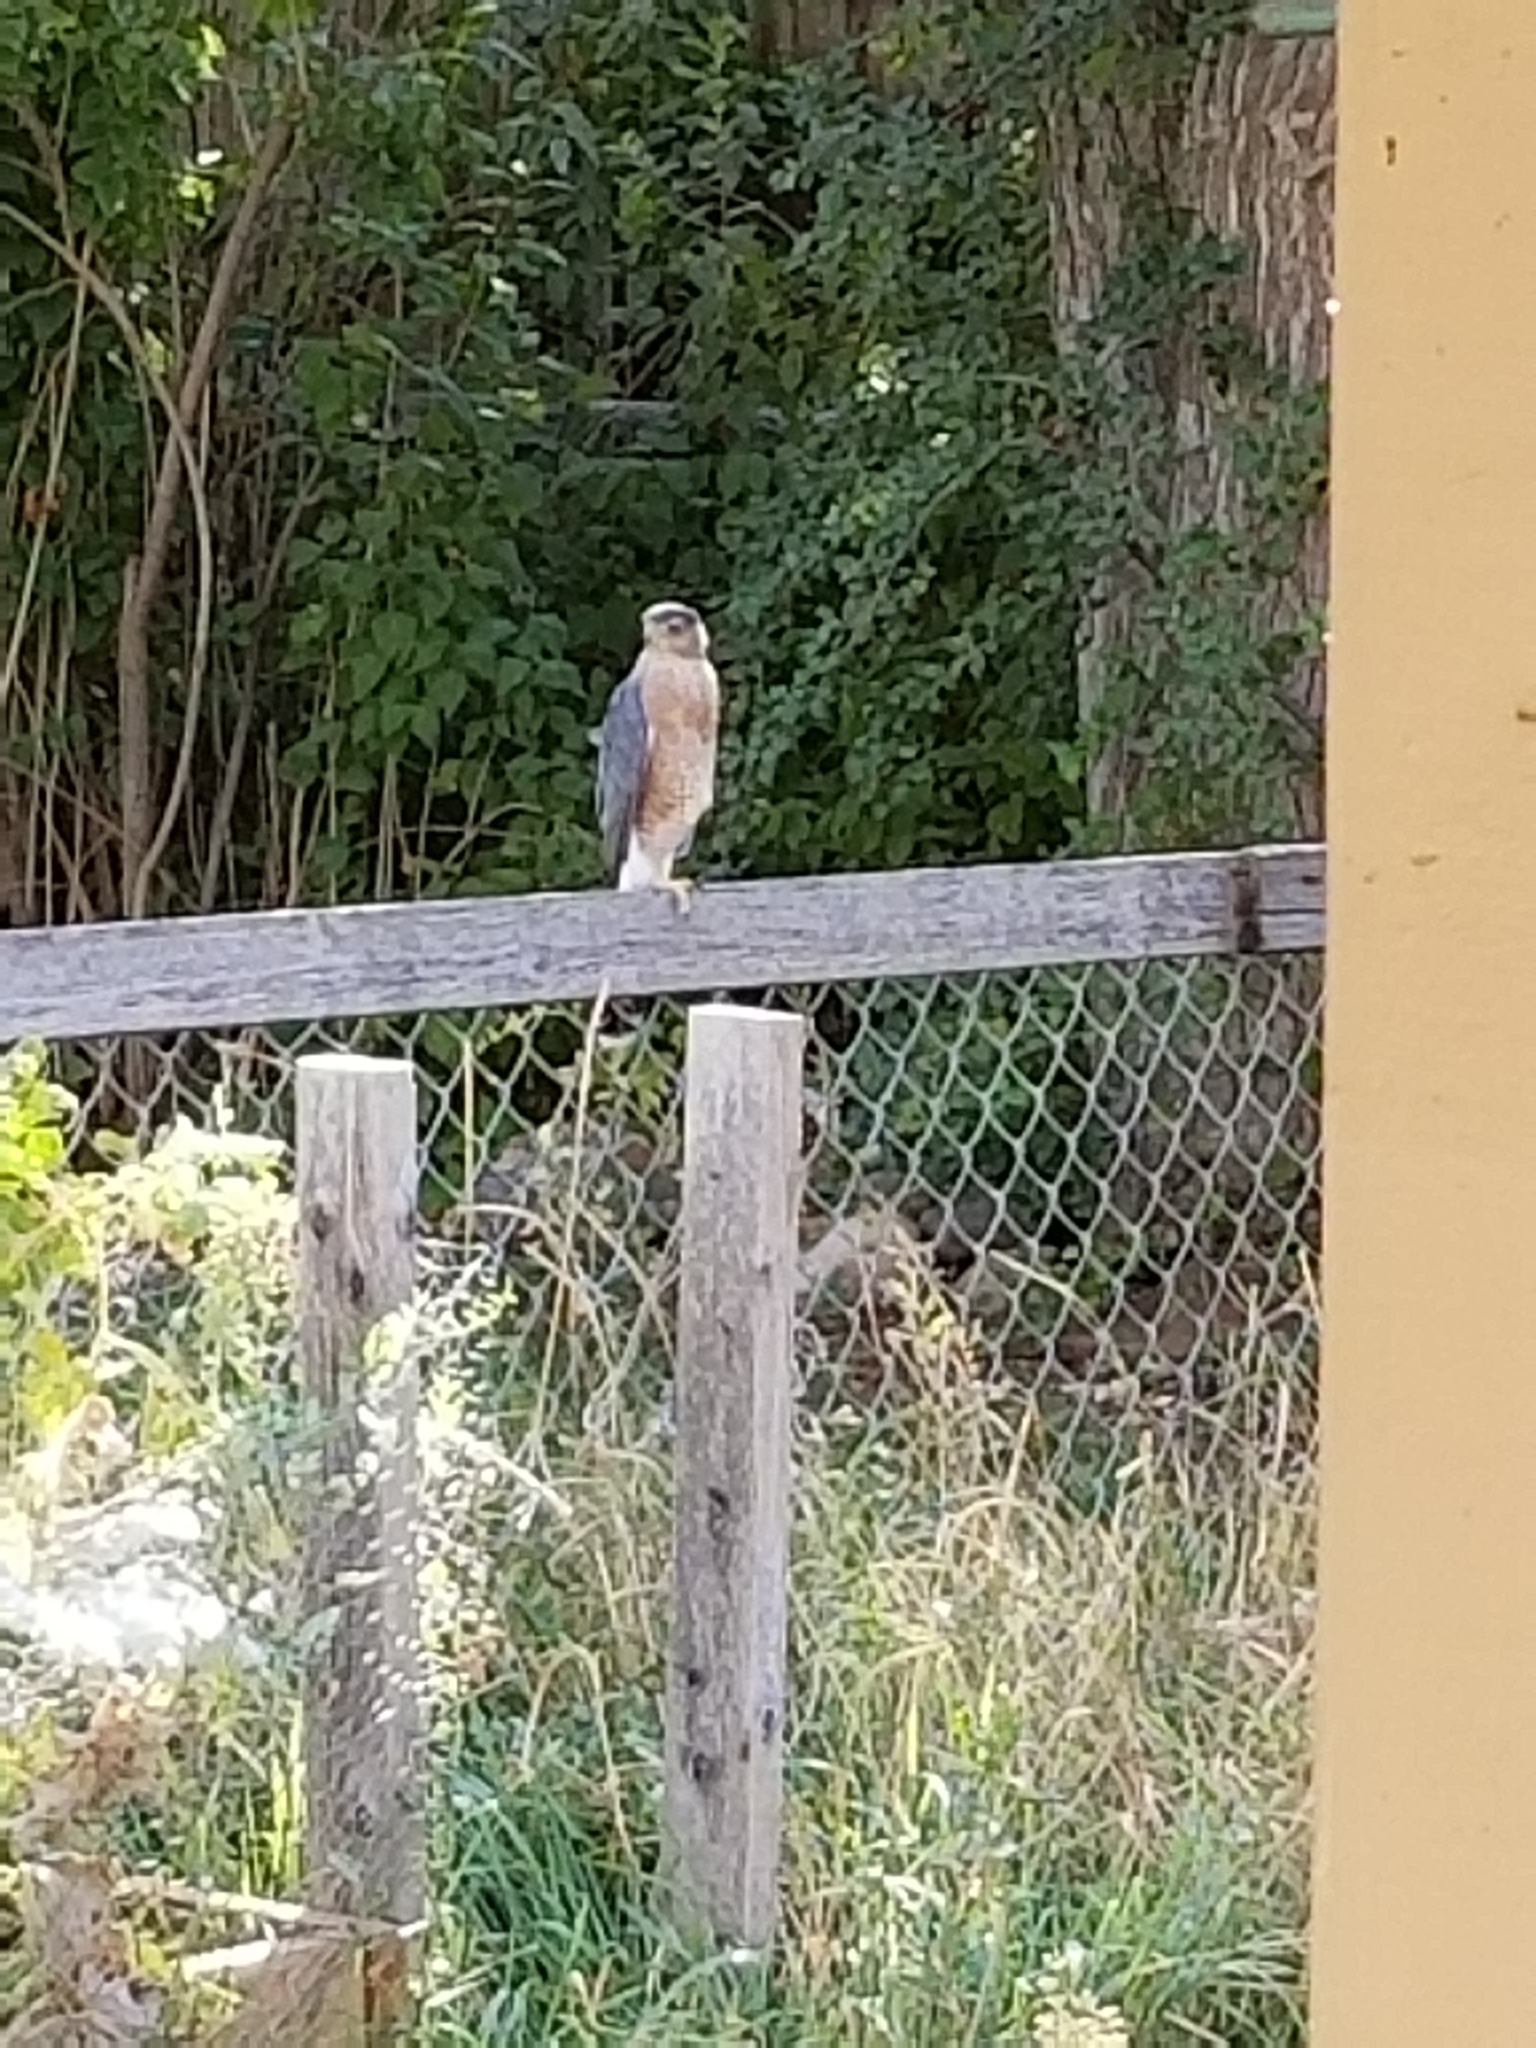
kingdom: Animalia
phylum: Chordata
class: Aves
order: Accipitriformes
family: Accipitridae
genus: Accipiter
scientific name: Accipiter cooperii
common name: Cooper's hawk
